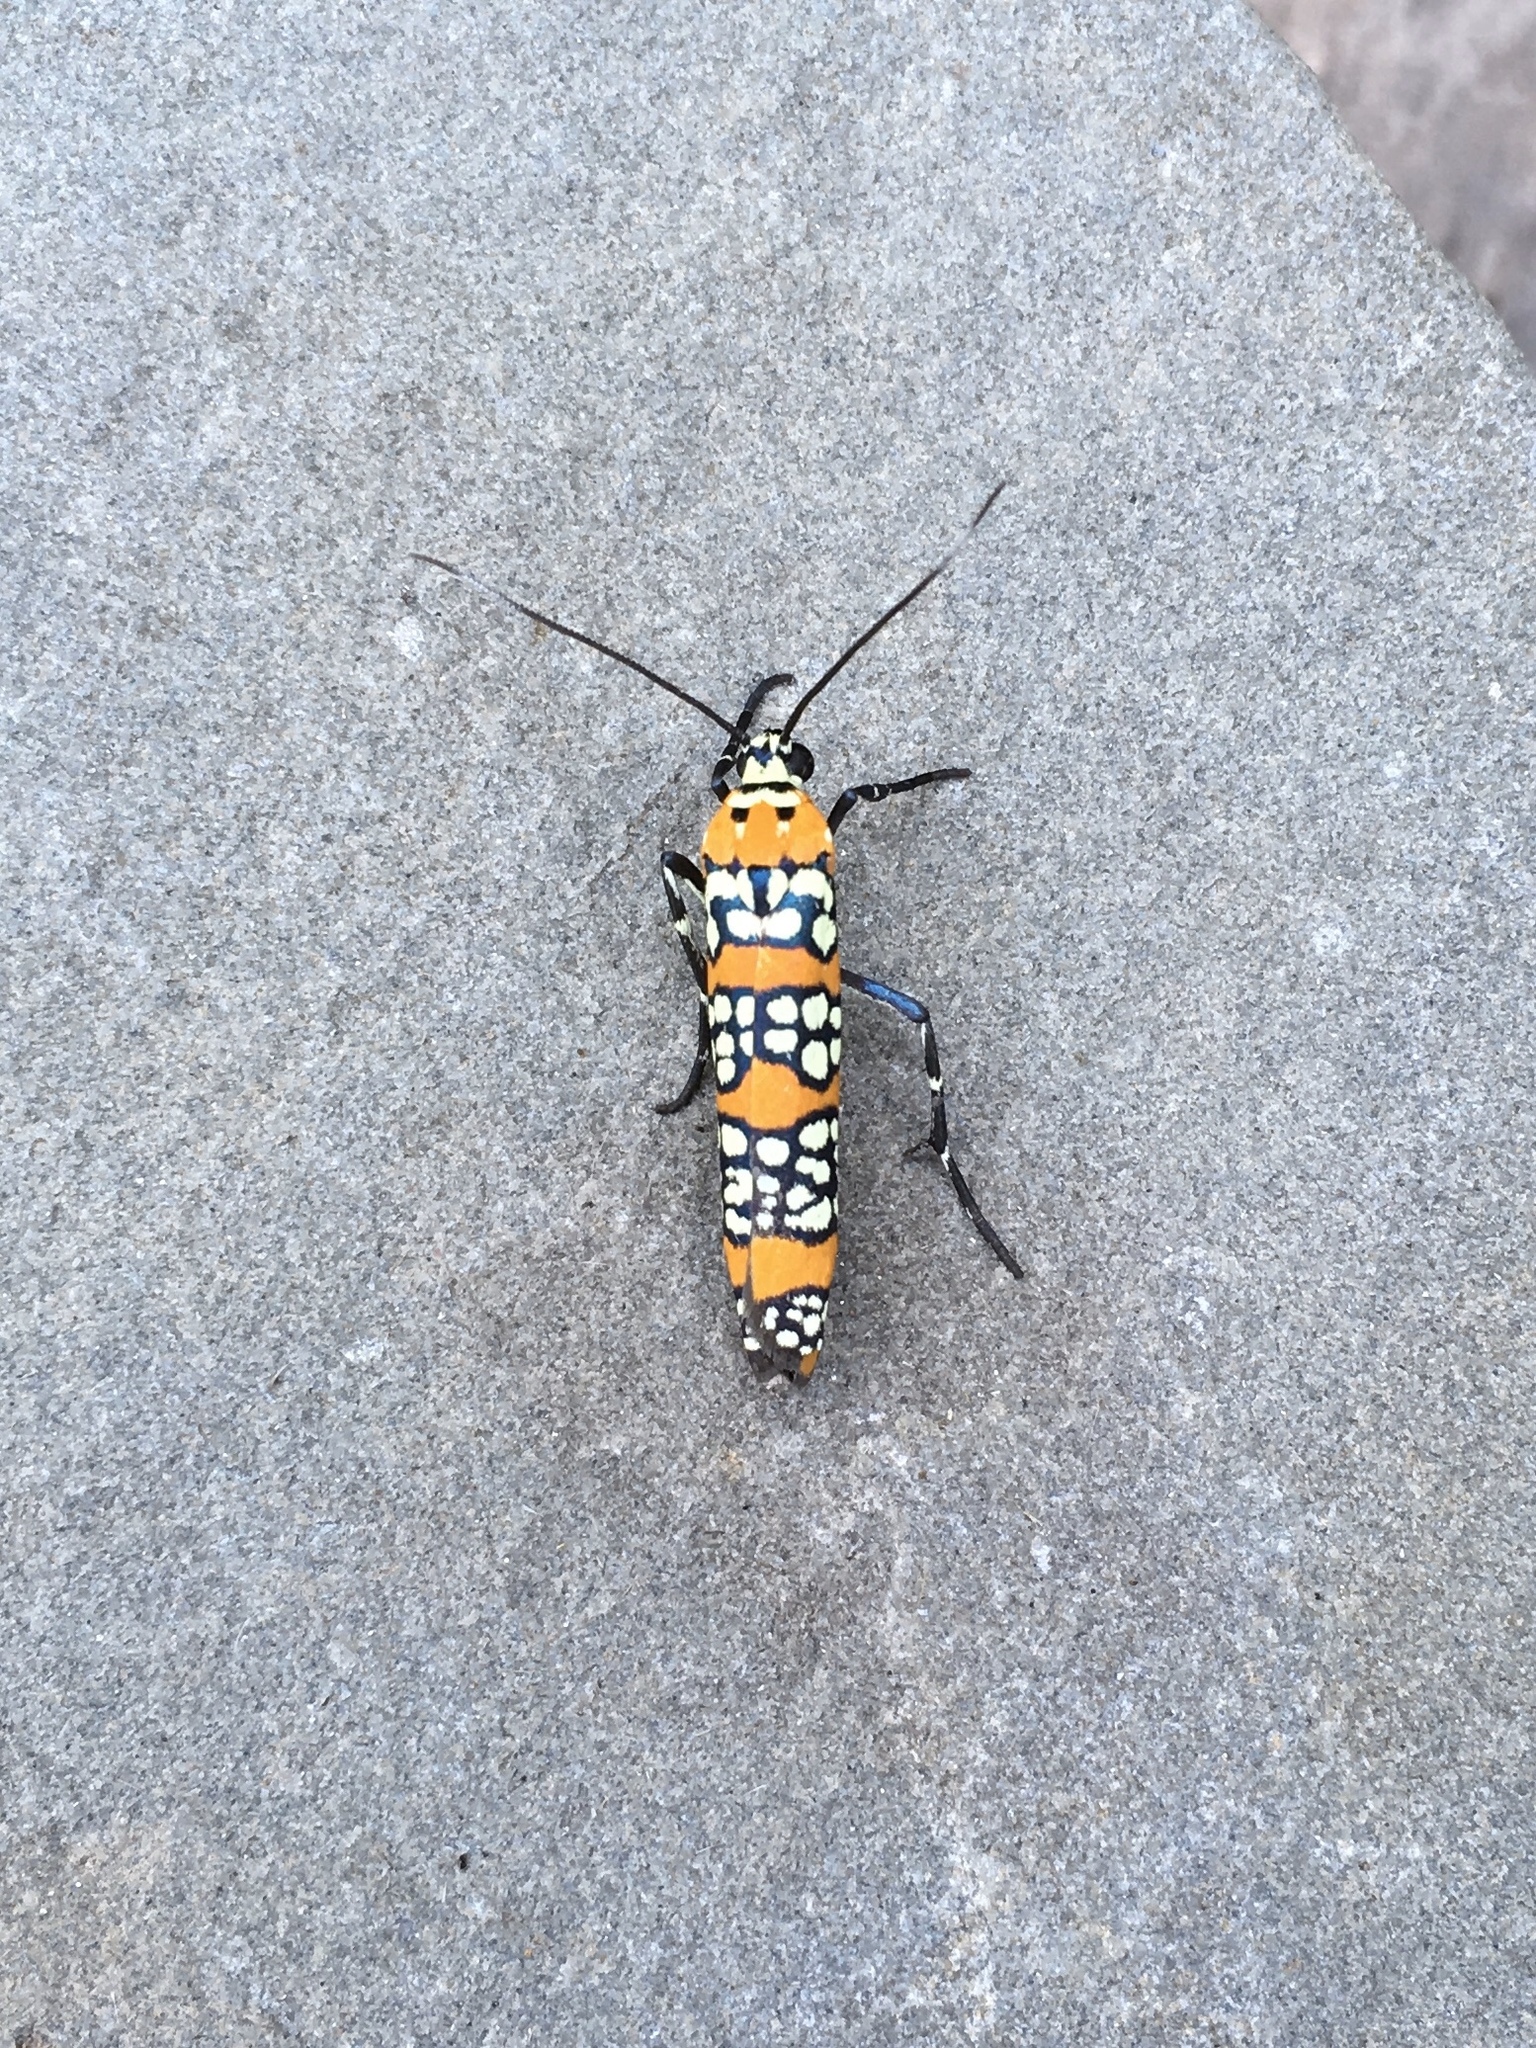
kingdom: Animalia
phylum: Arthropoda
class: Insecta
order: Lepidoptera
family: Attevidae
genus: Atteva
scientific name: Atteva punctella
